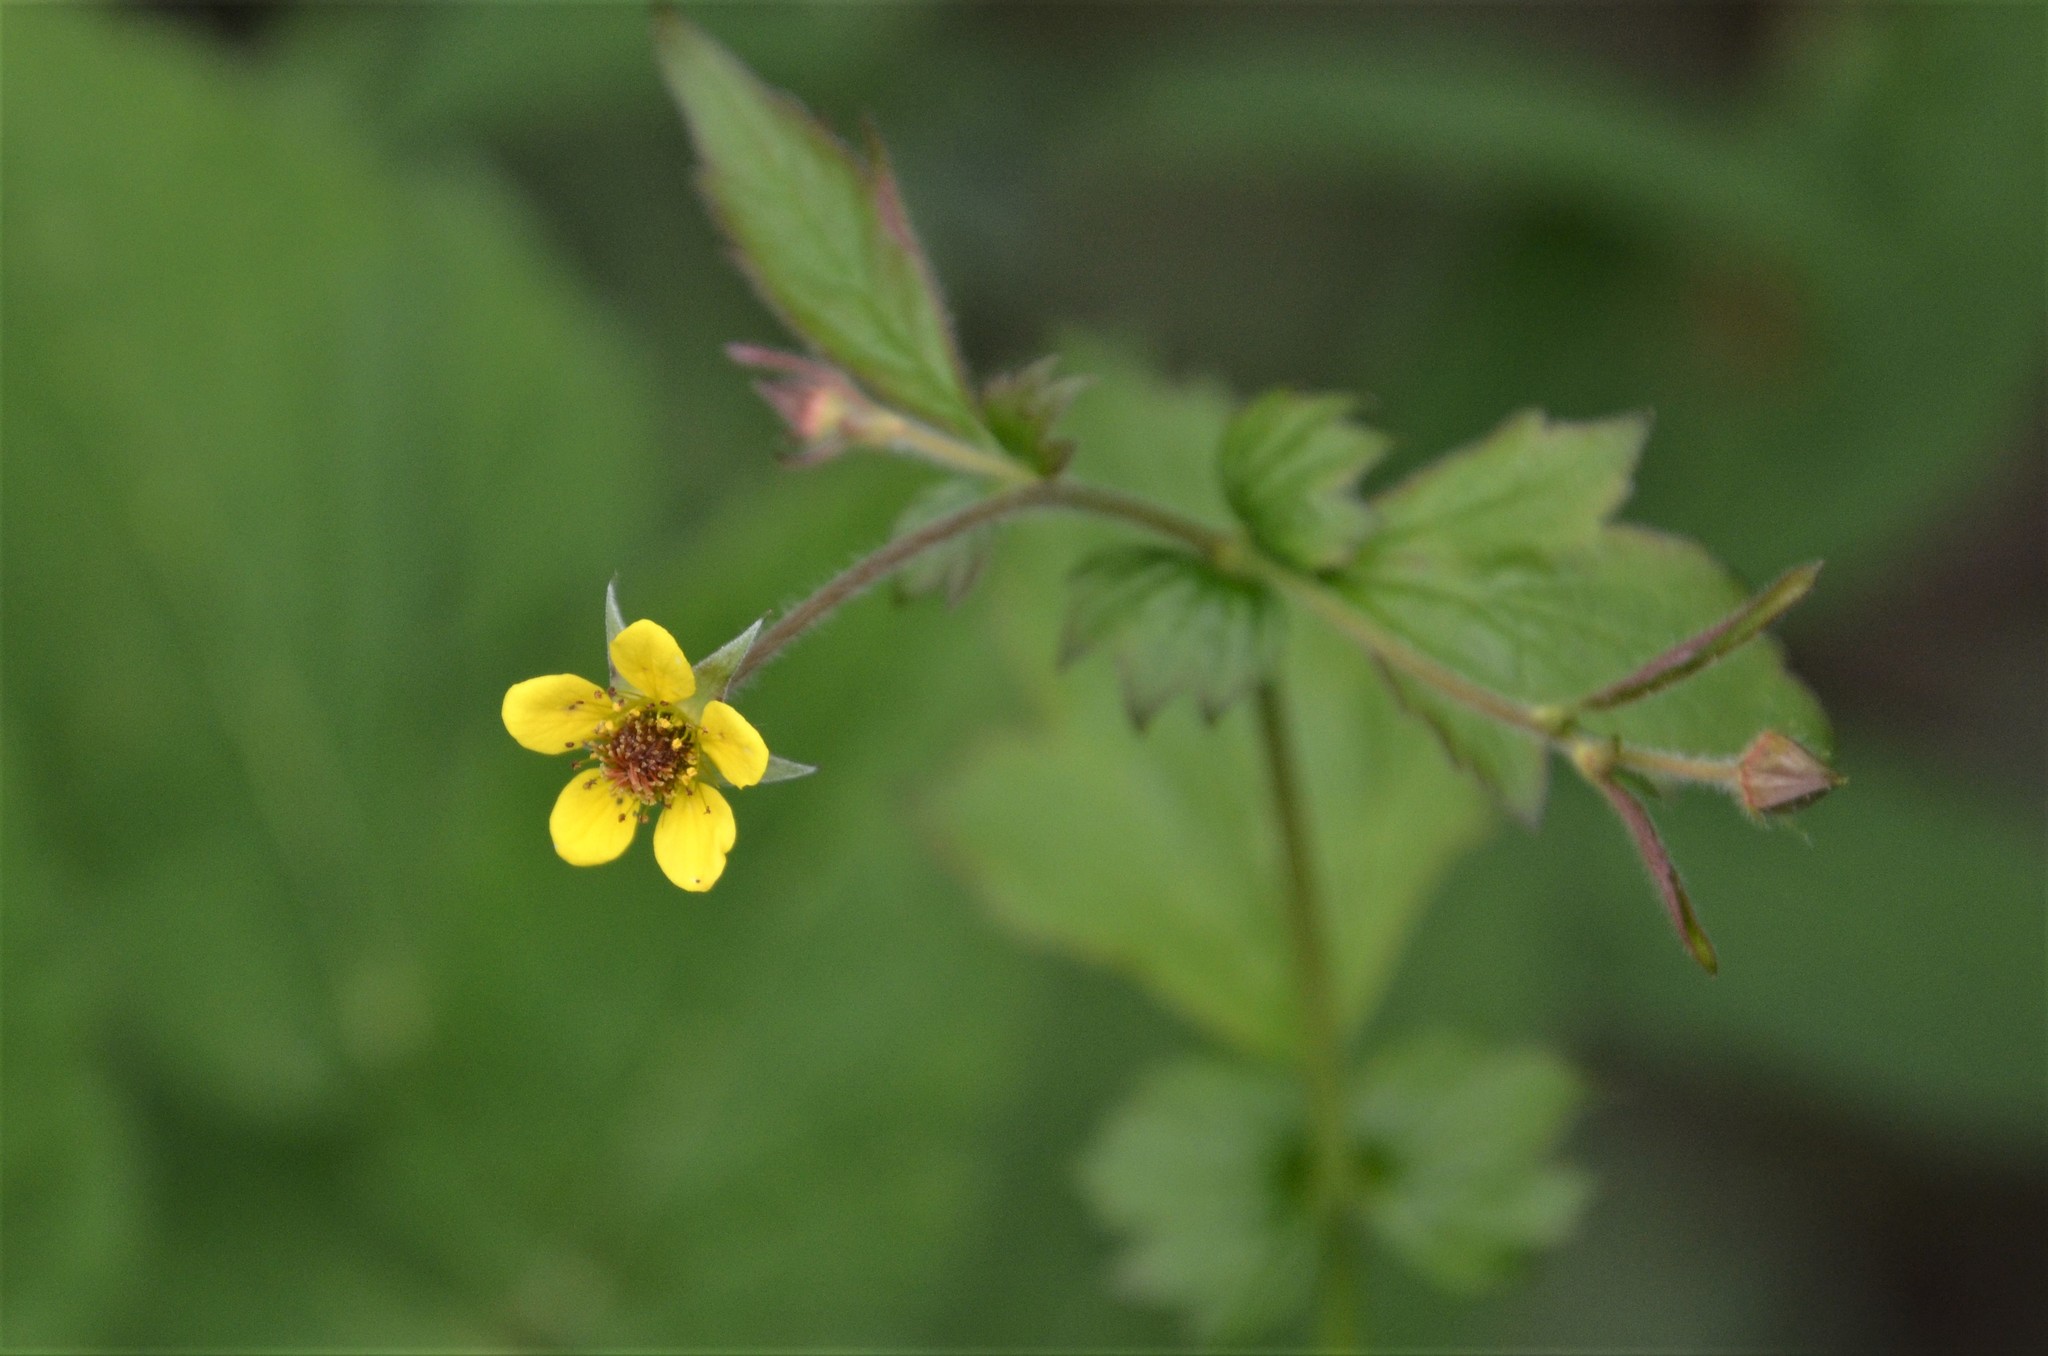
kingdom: Plantae
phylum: Tracheophyta
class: Magnoliopsida
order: Rosales
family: Rosaceae
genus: Geum
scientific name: Geum urbanum
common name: Wood avens
